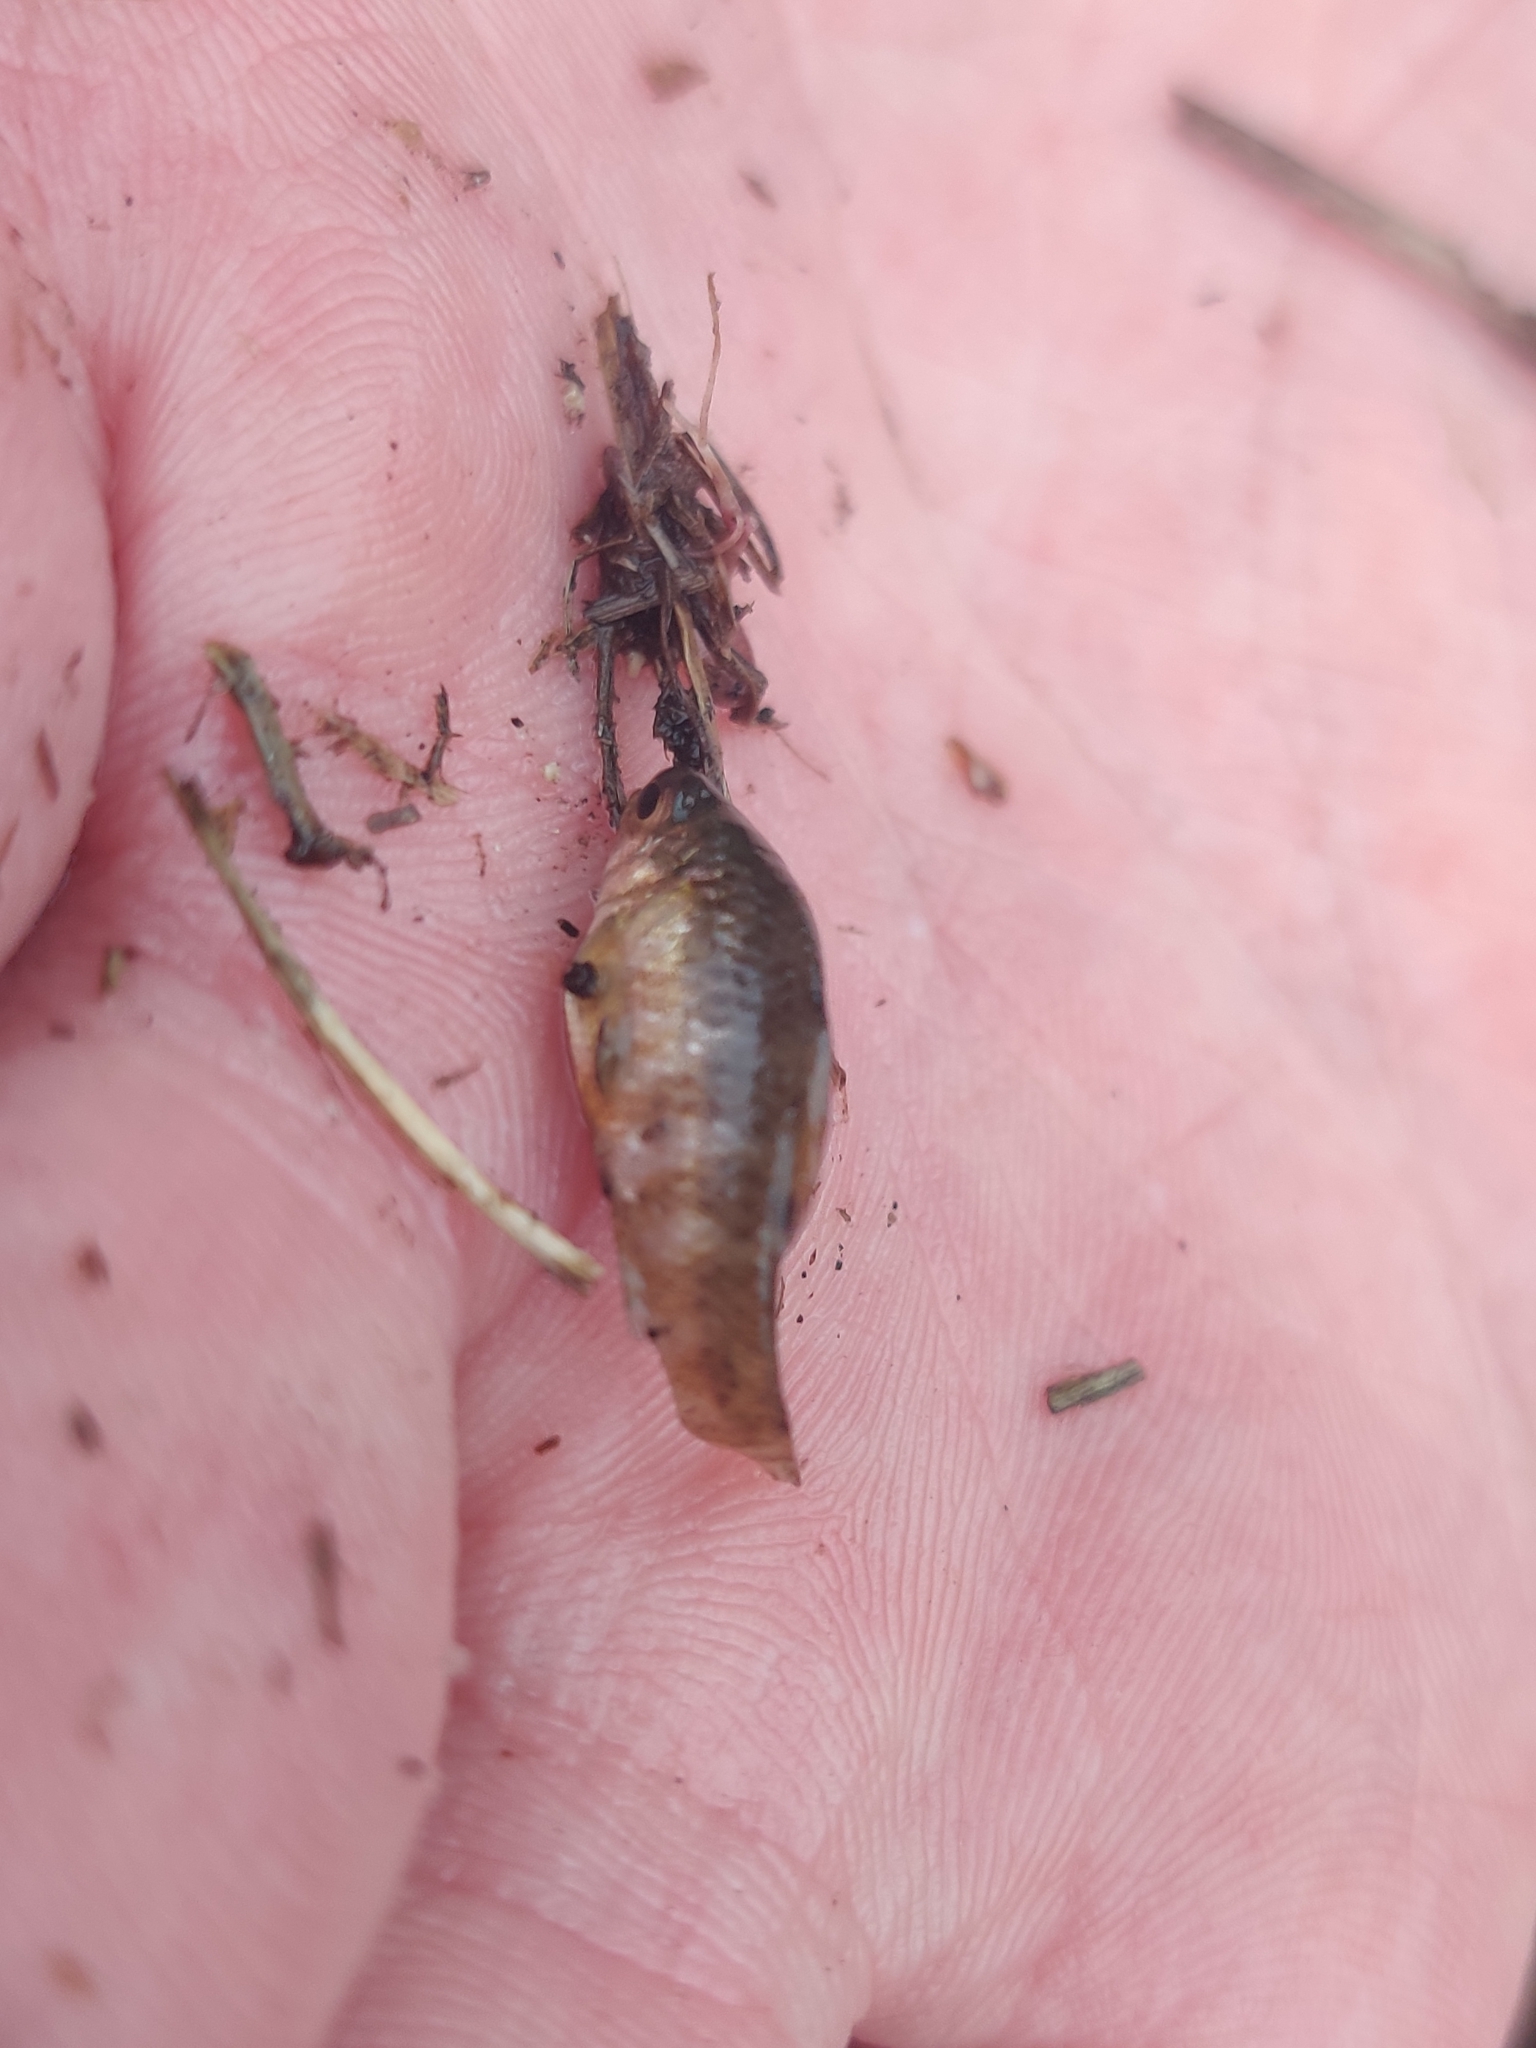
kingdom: Animalia
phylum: Chordata
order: Cyprinodontiformes
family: Cyprinodontidae
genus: Cyprinodon
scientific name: Cyprinodon variegatus
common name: Sheepshead minnow
